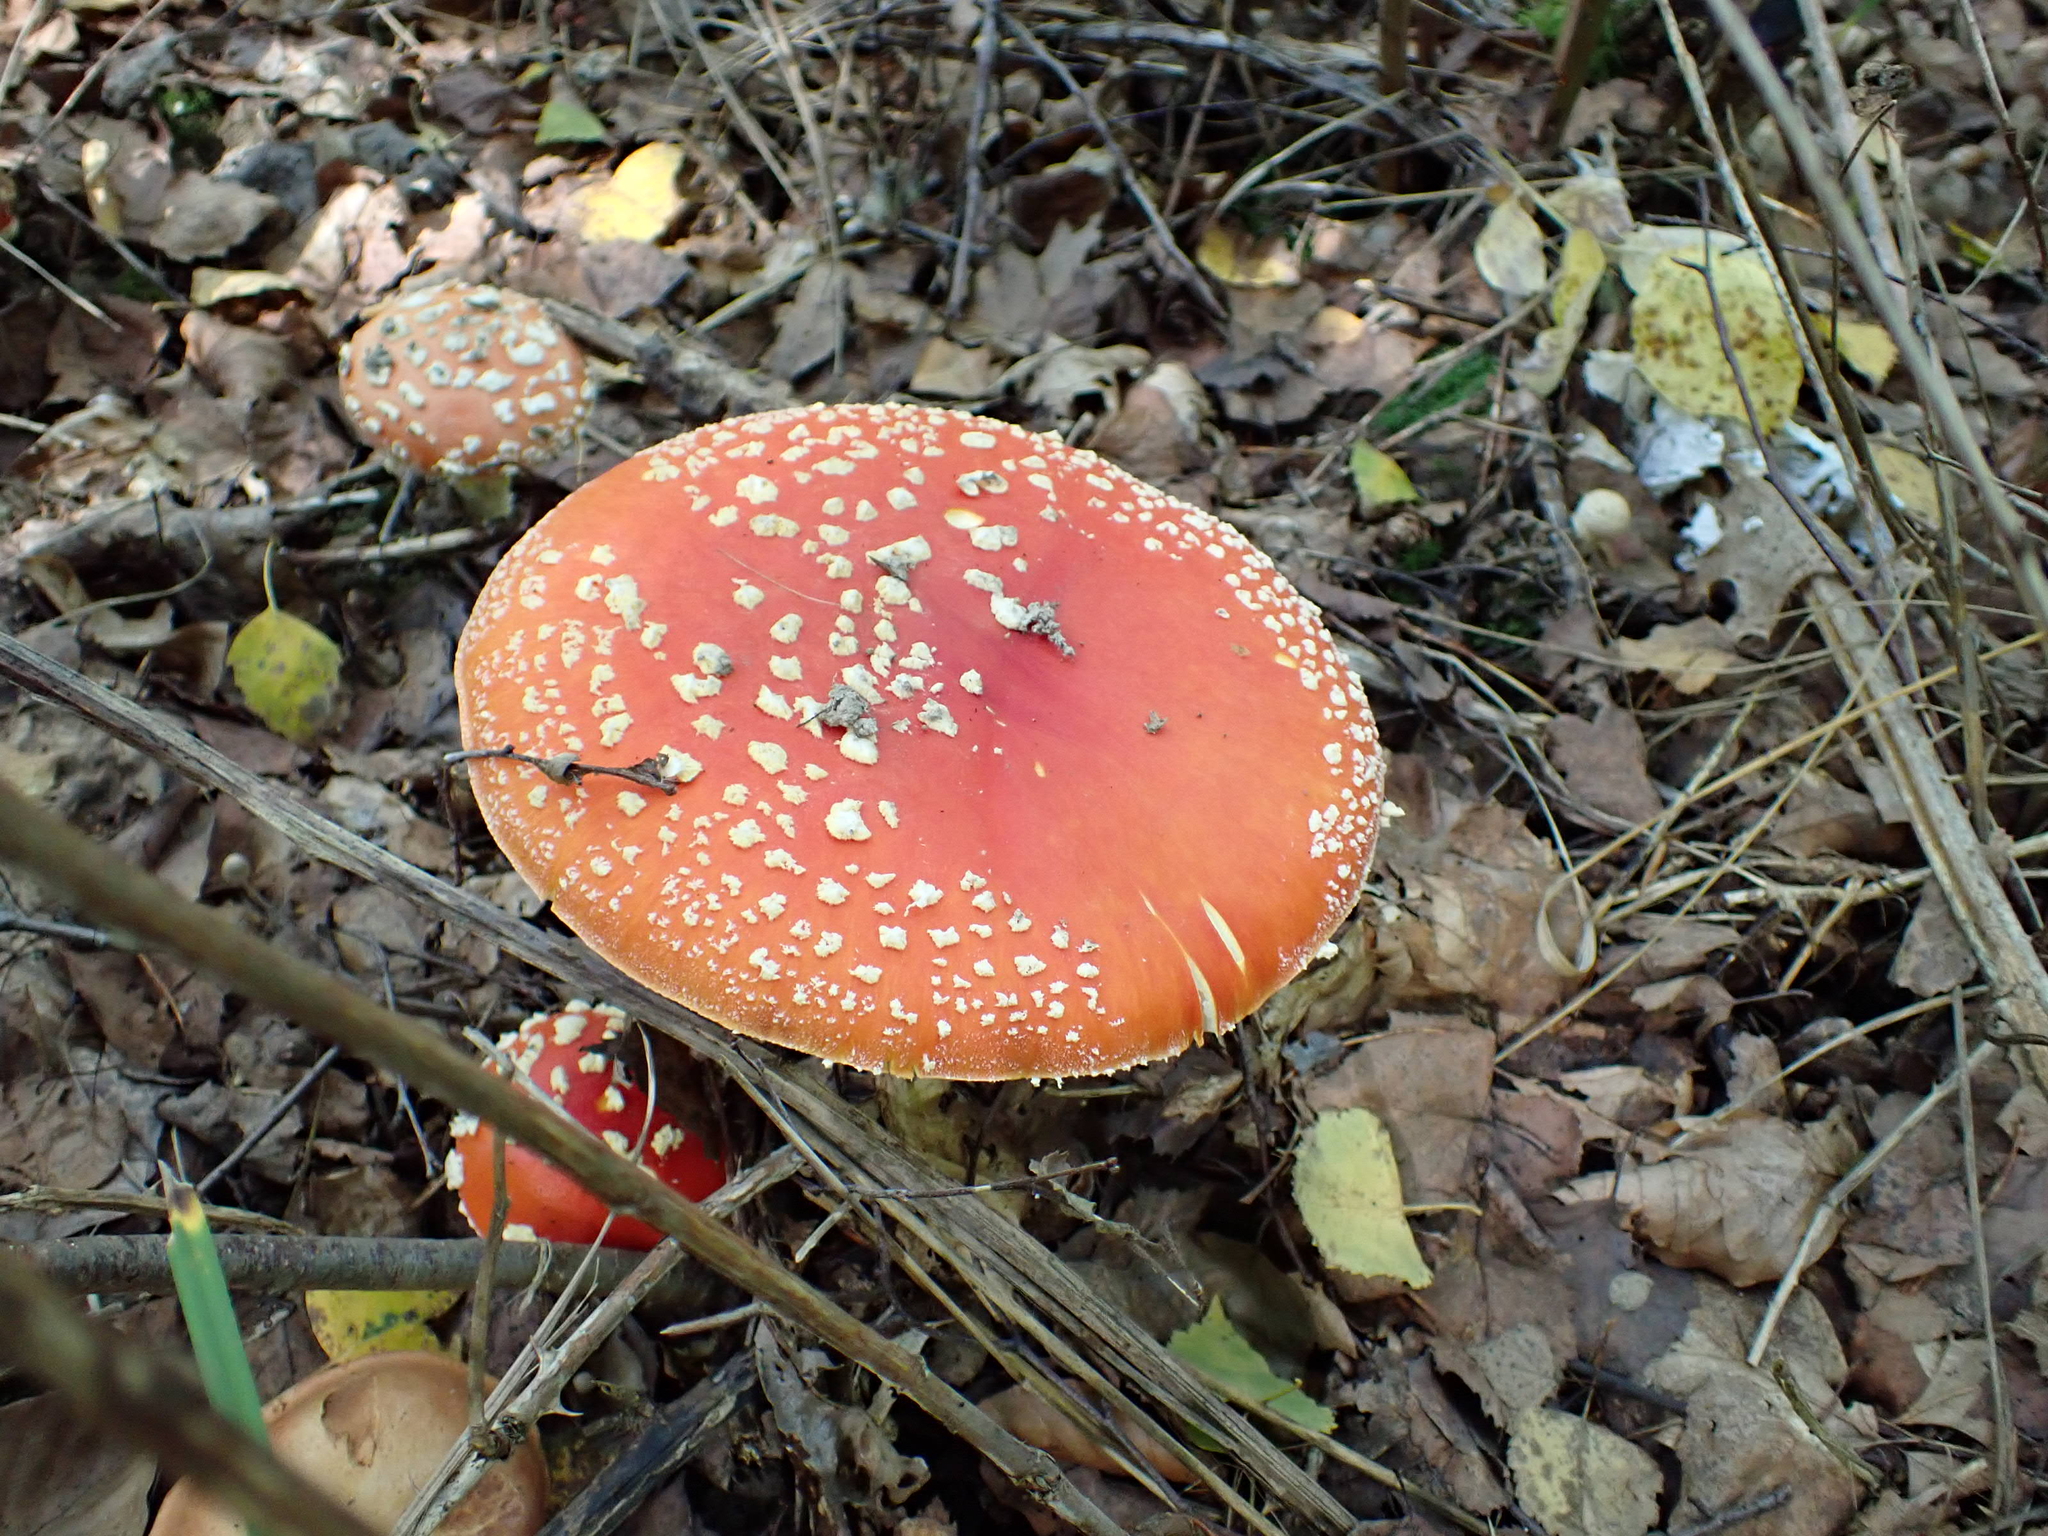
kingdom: Fungi
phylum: Basidiomycota
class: Agaricomycetes
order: Agaricales
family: Amanitaceae
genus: Amanita
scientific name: Amanita muscaria
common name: Fly agaric
